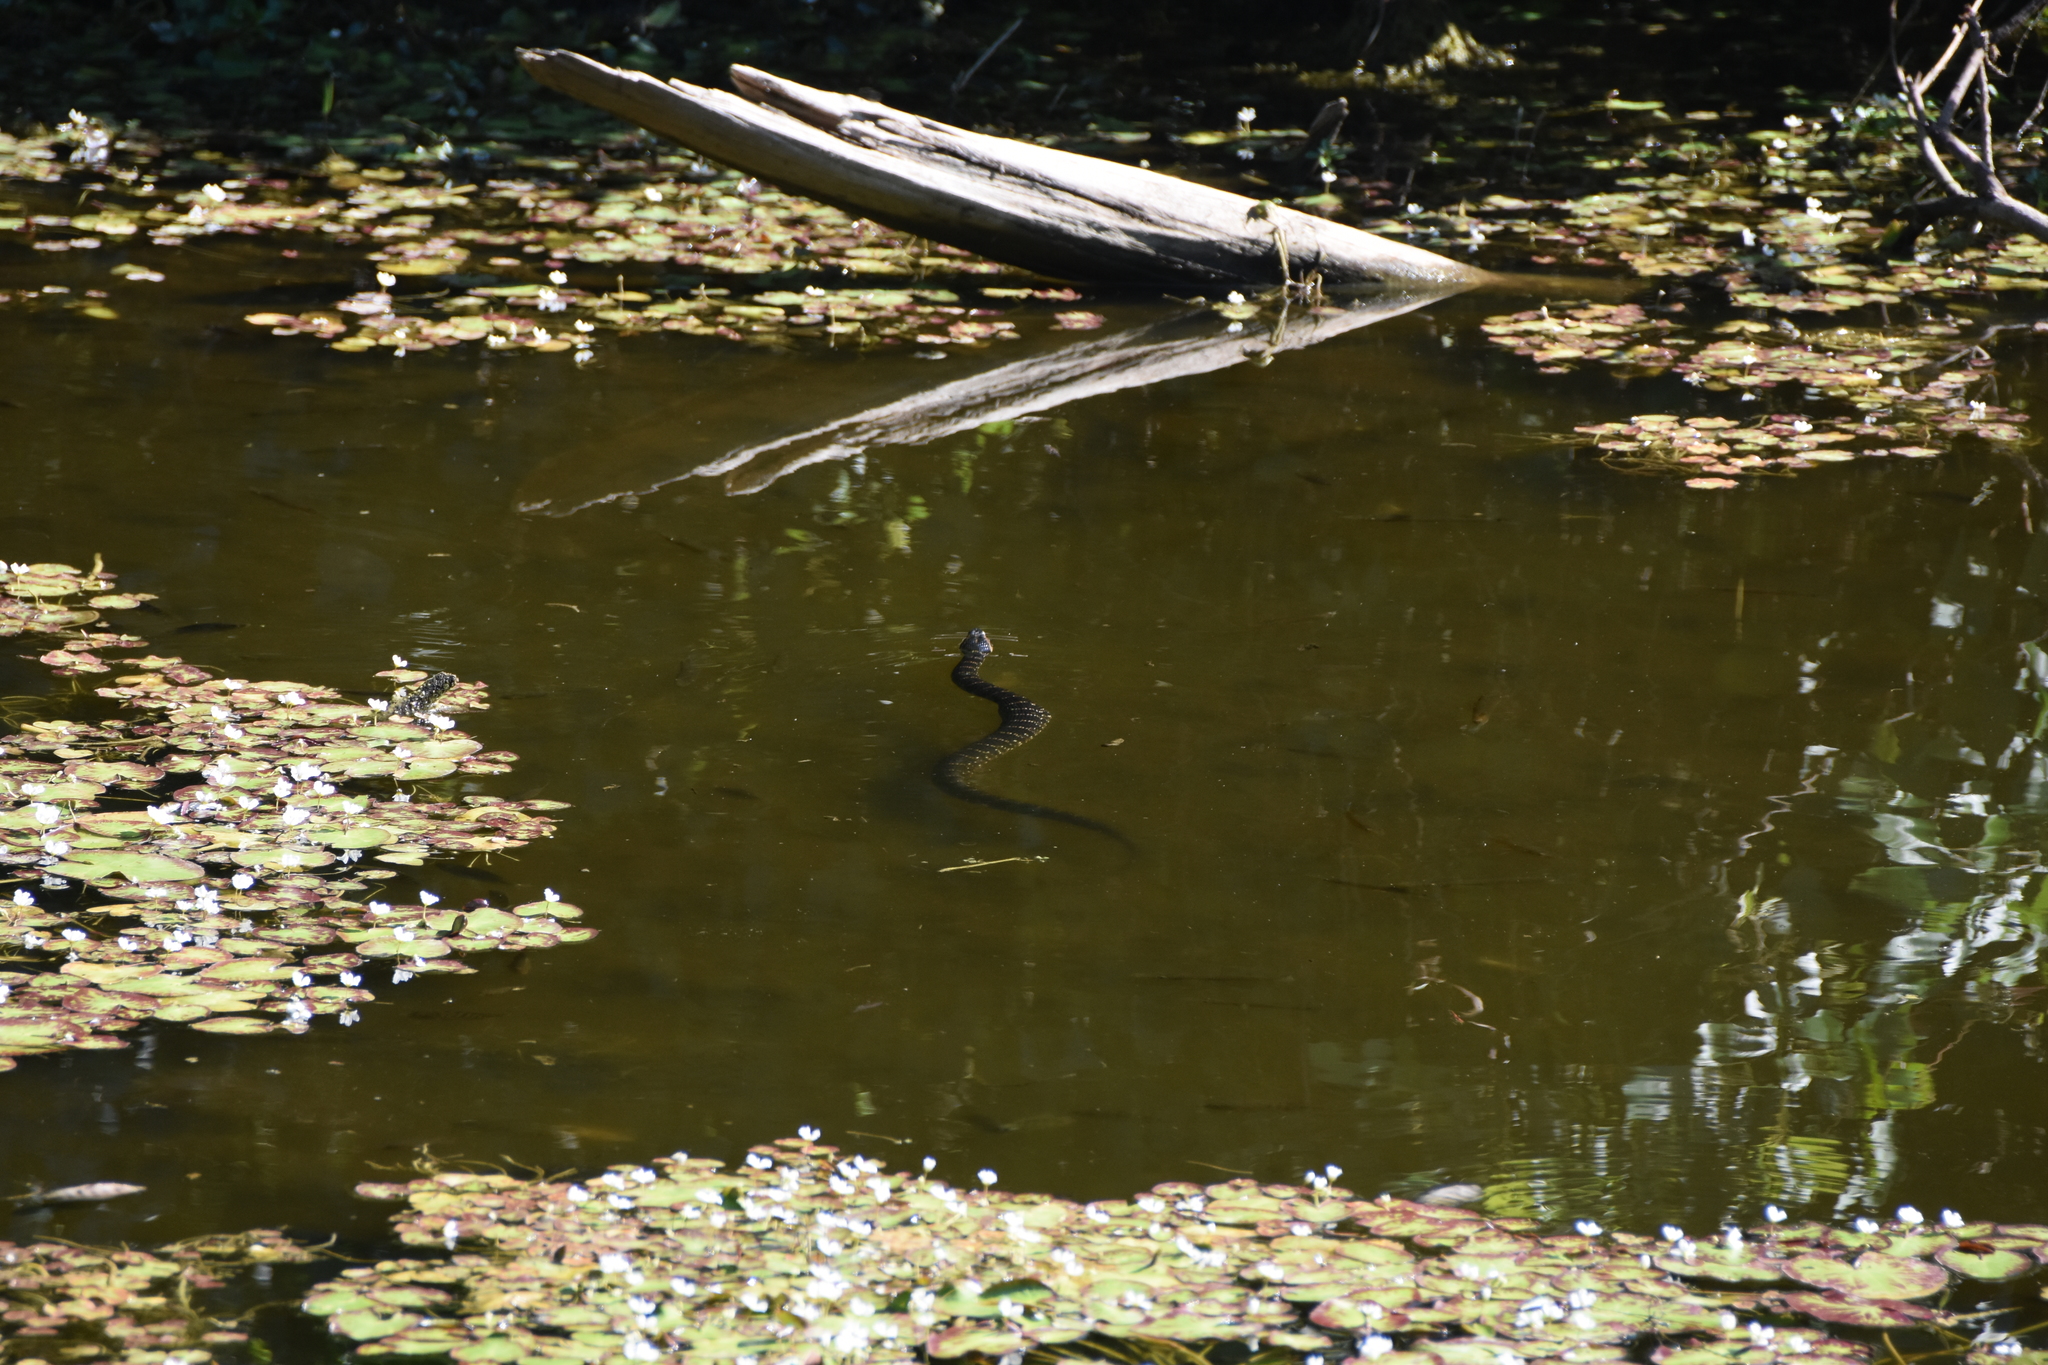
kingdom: Animalia
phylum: Chordata
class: Squamata
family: Colubridae
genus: Nerodia
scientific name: Nerodia fasciata
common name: Southern water snake
